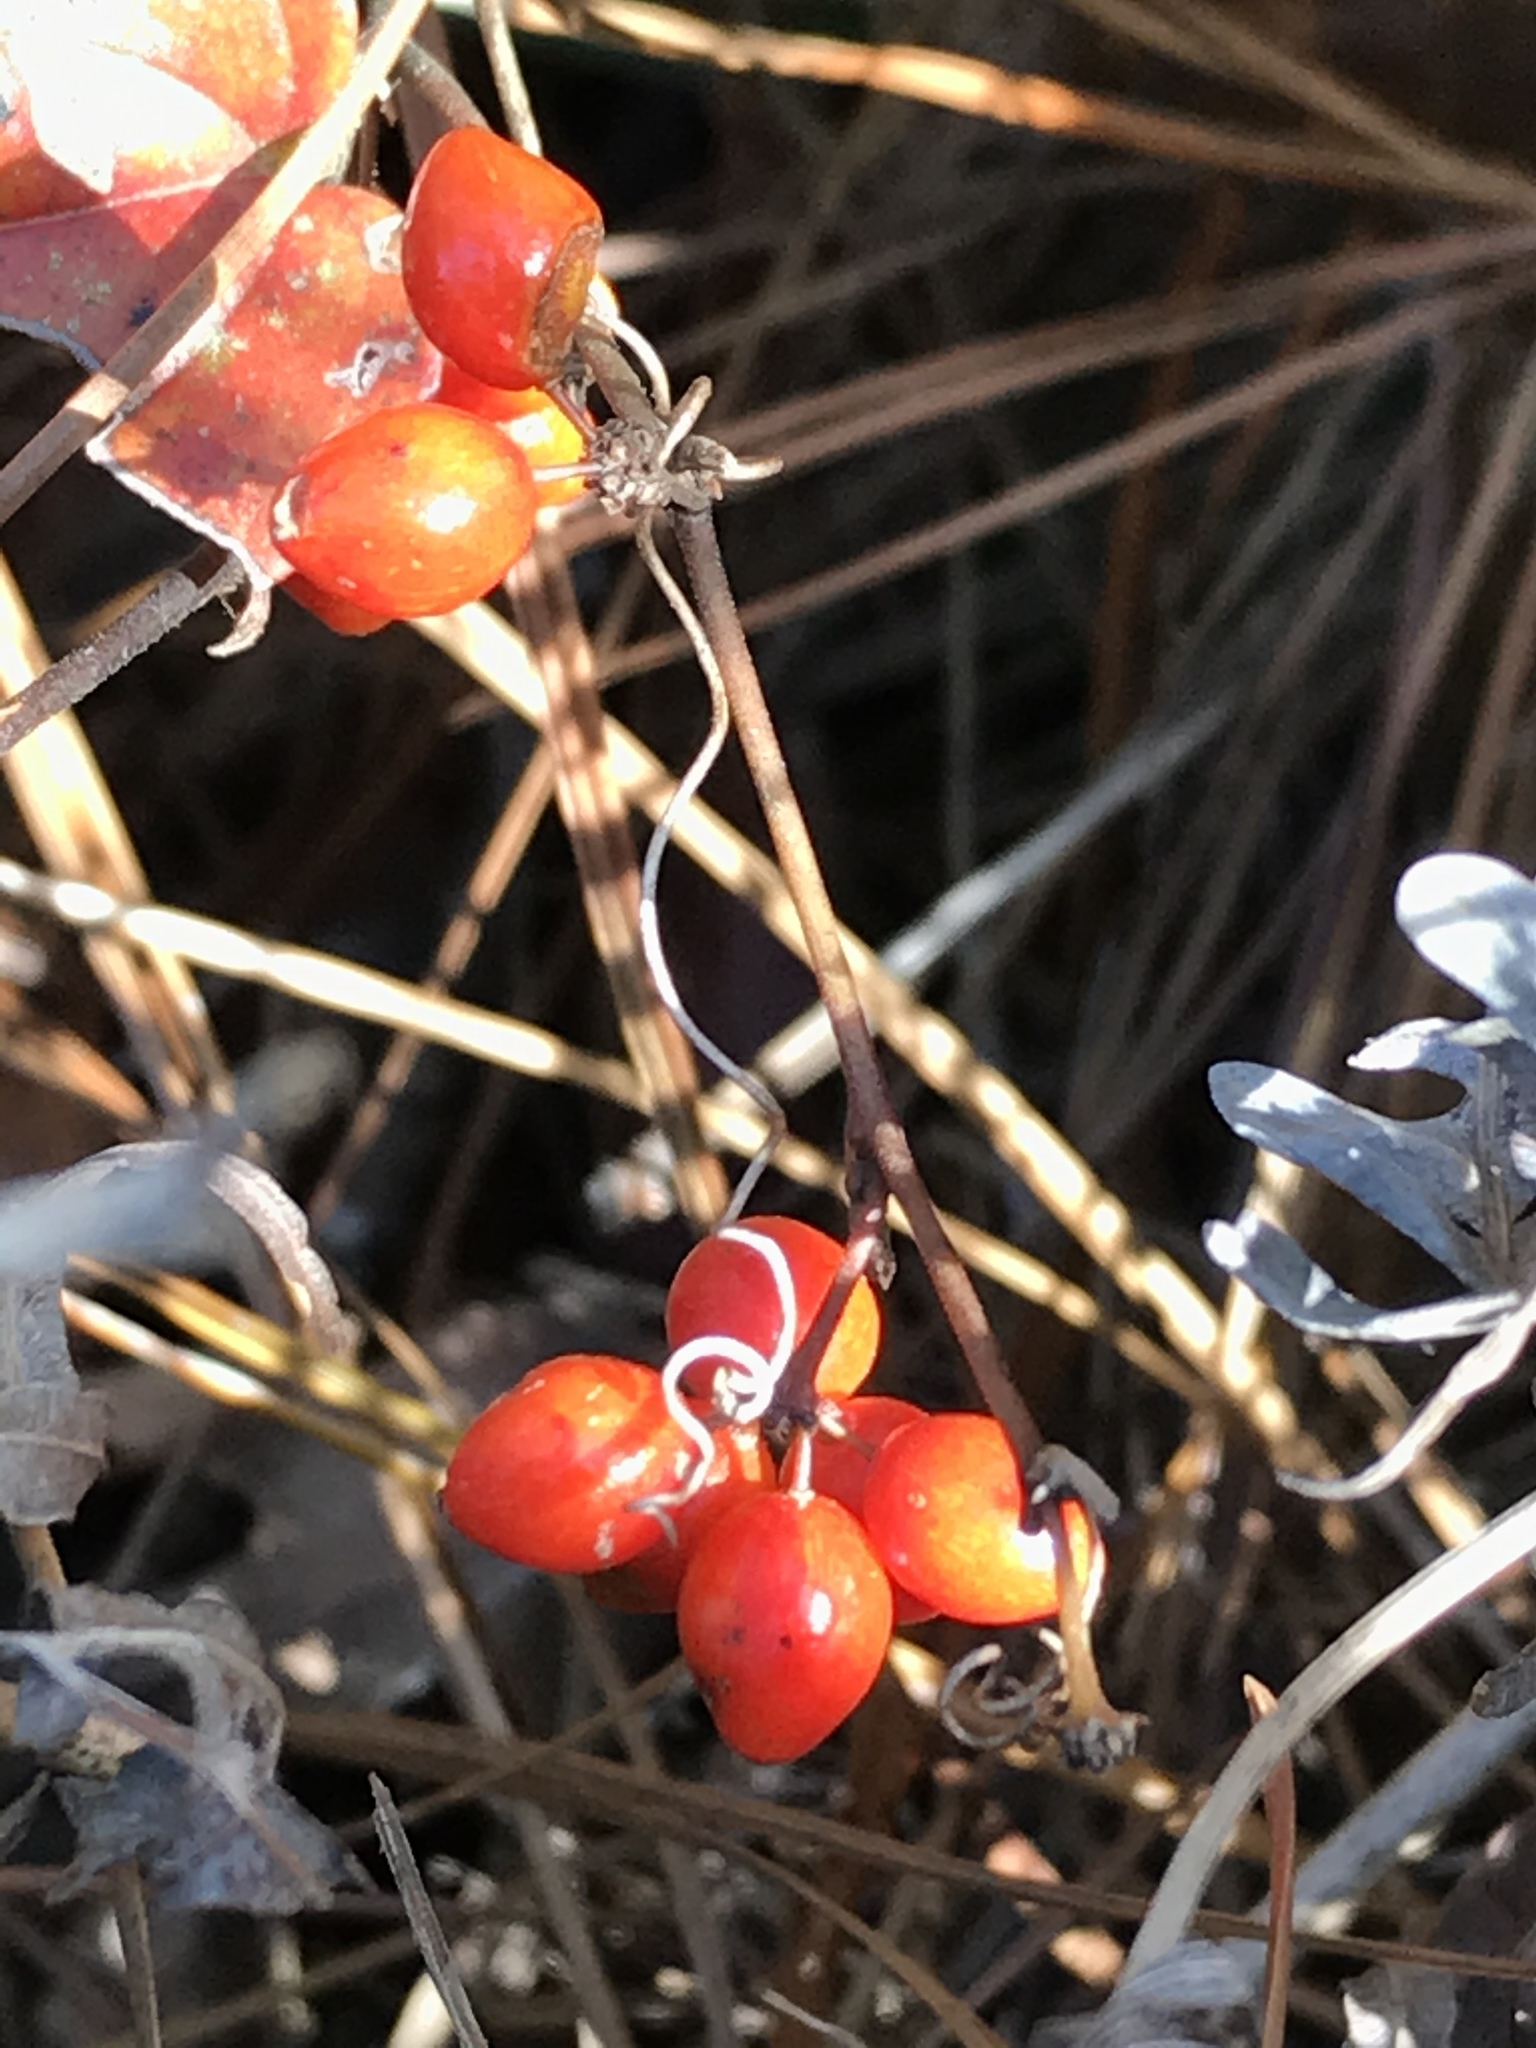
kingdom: Plantae
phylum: Tracheophyta
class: Liliopsida
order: Liliales
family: Smilacaceae
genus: Smilax
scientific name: Smilax pumila
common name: Sarsaparilla-vine
